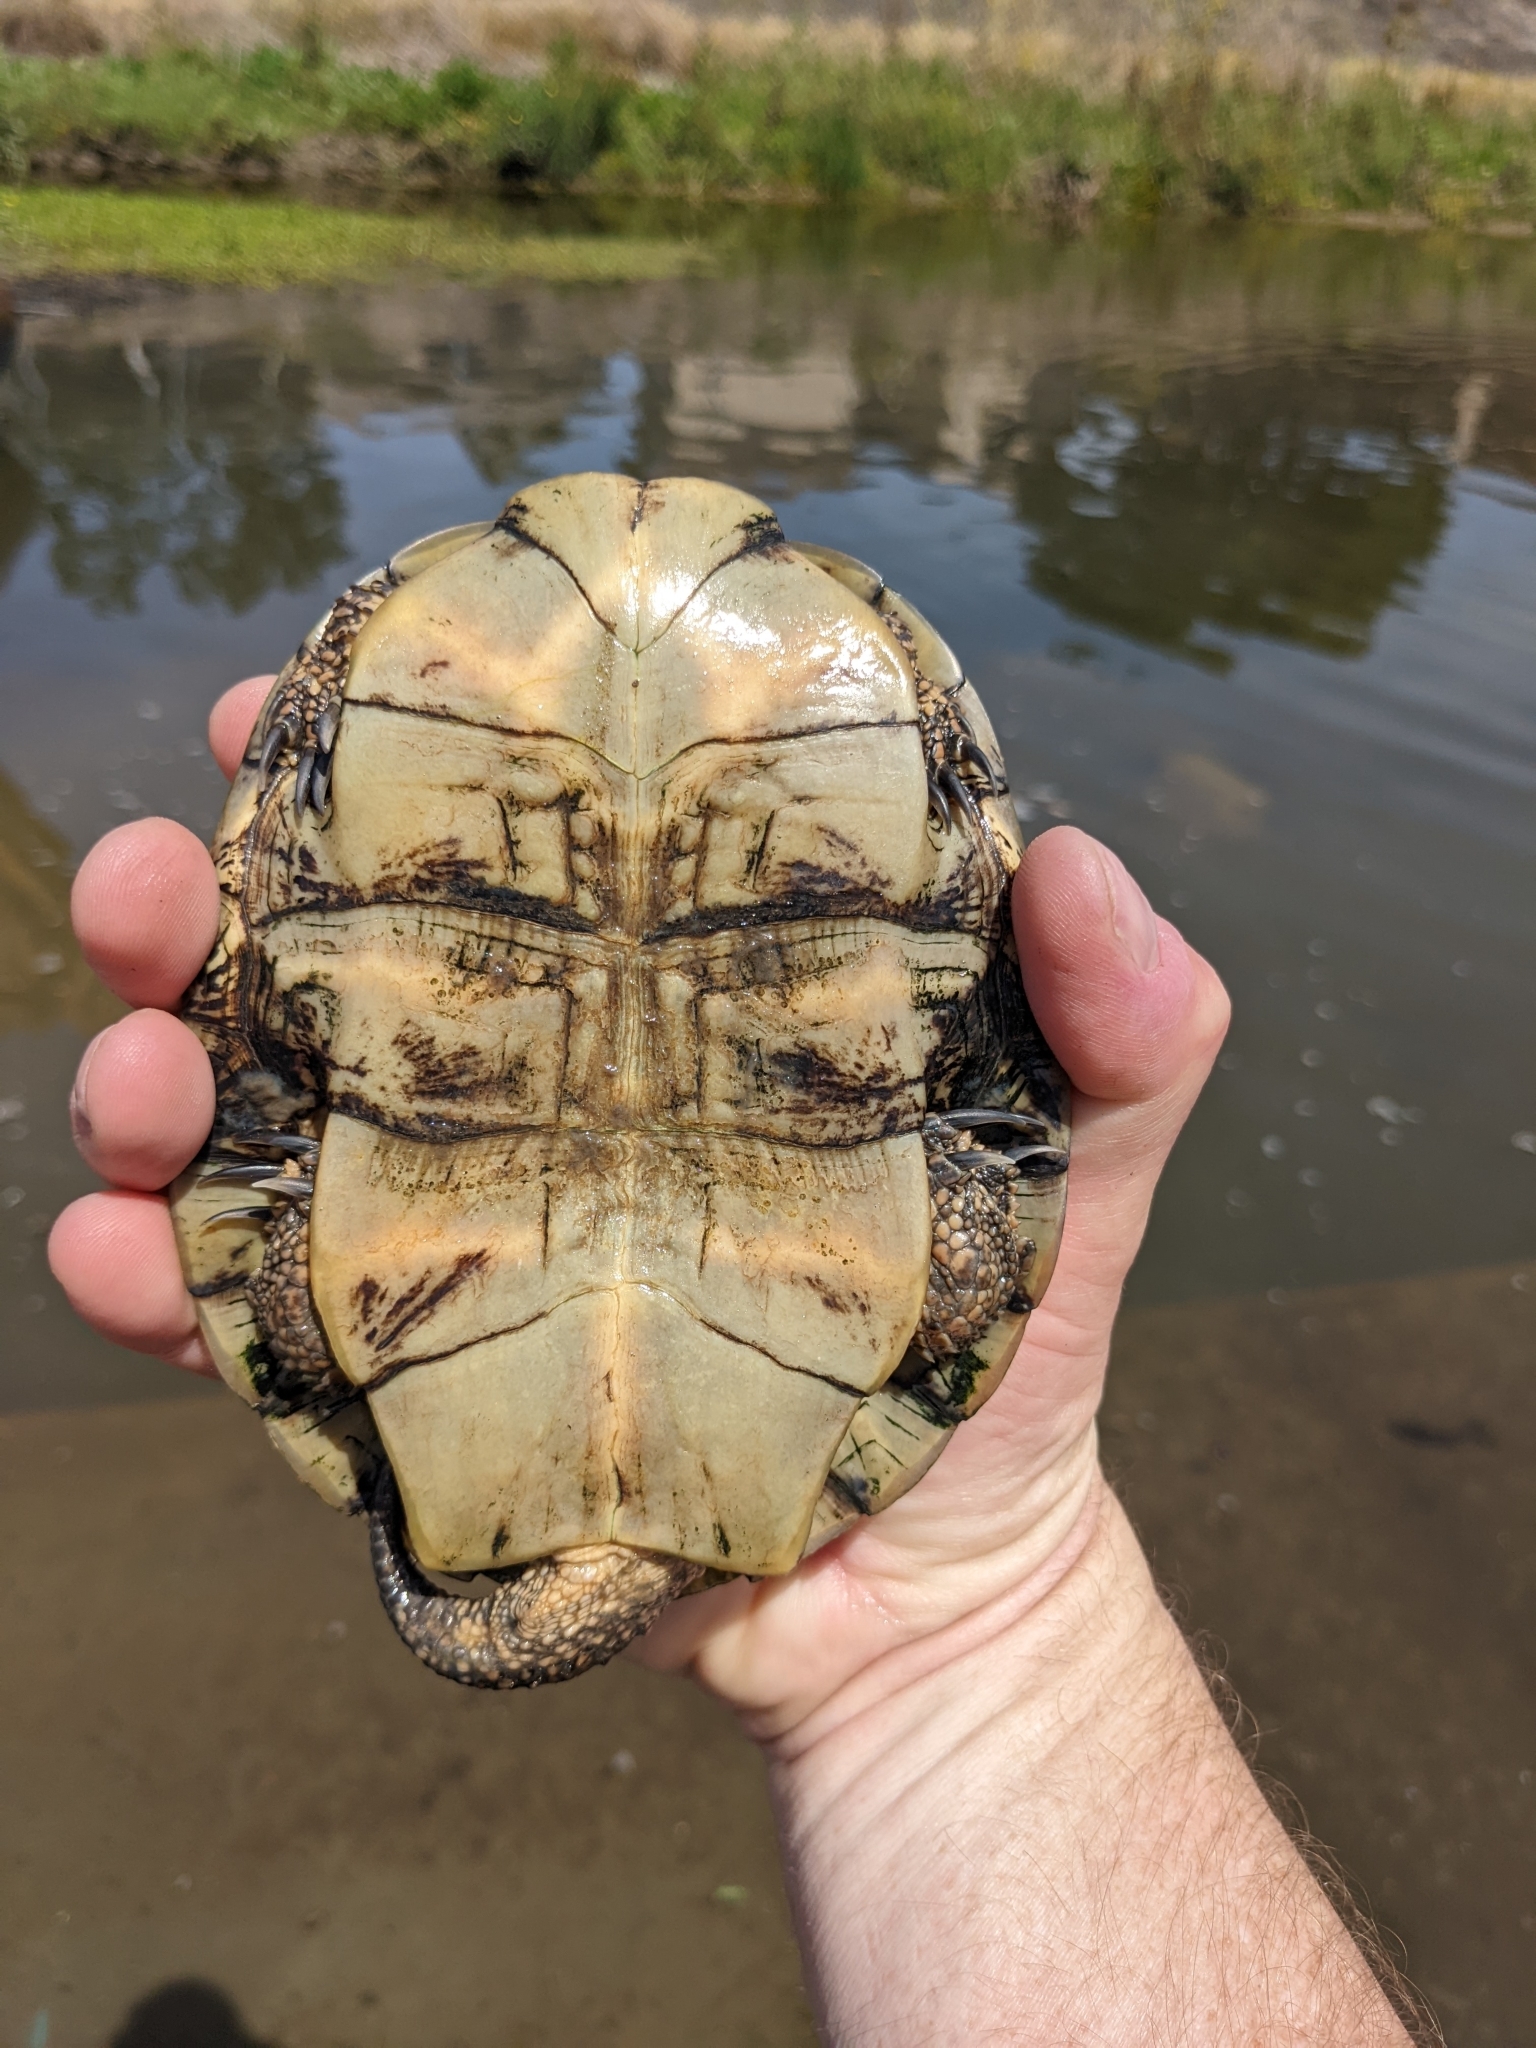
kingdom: Animalia
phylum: Chordata
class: Testudines
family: Emydidae
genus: Actinemys
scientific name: Actinemys marmorata
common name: Western pond turtle
